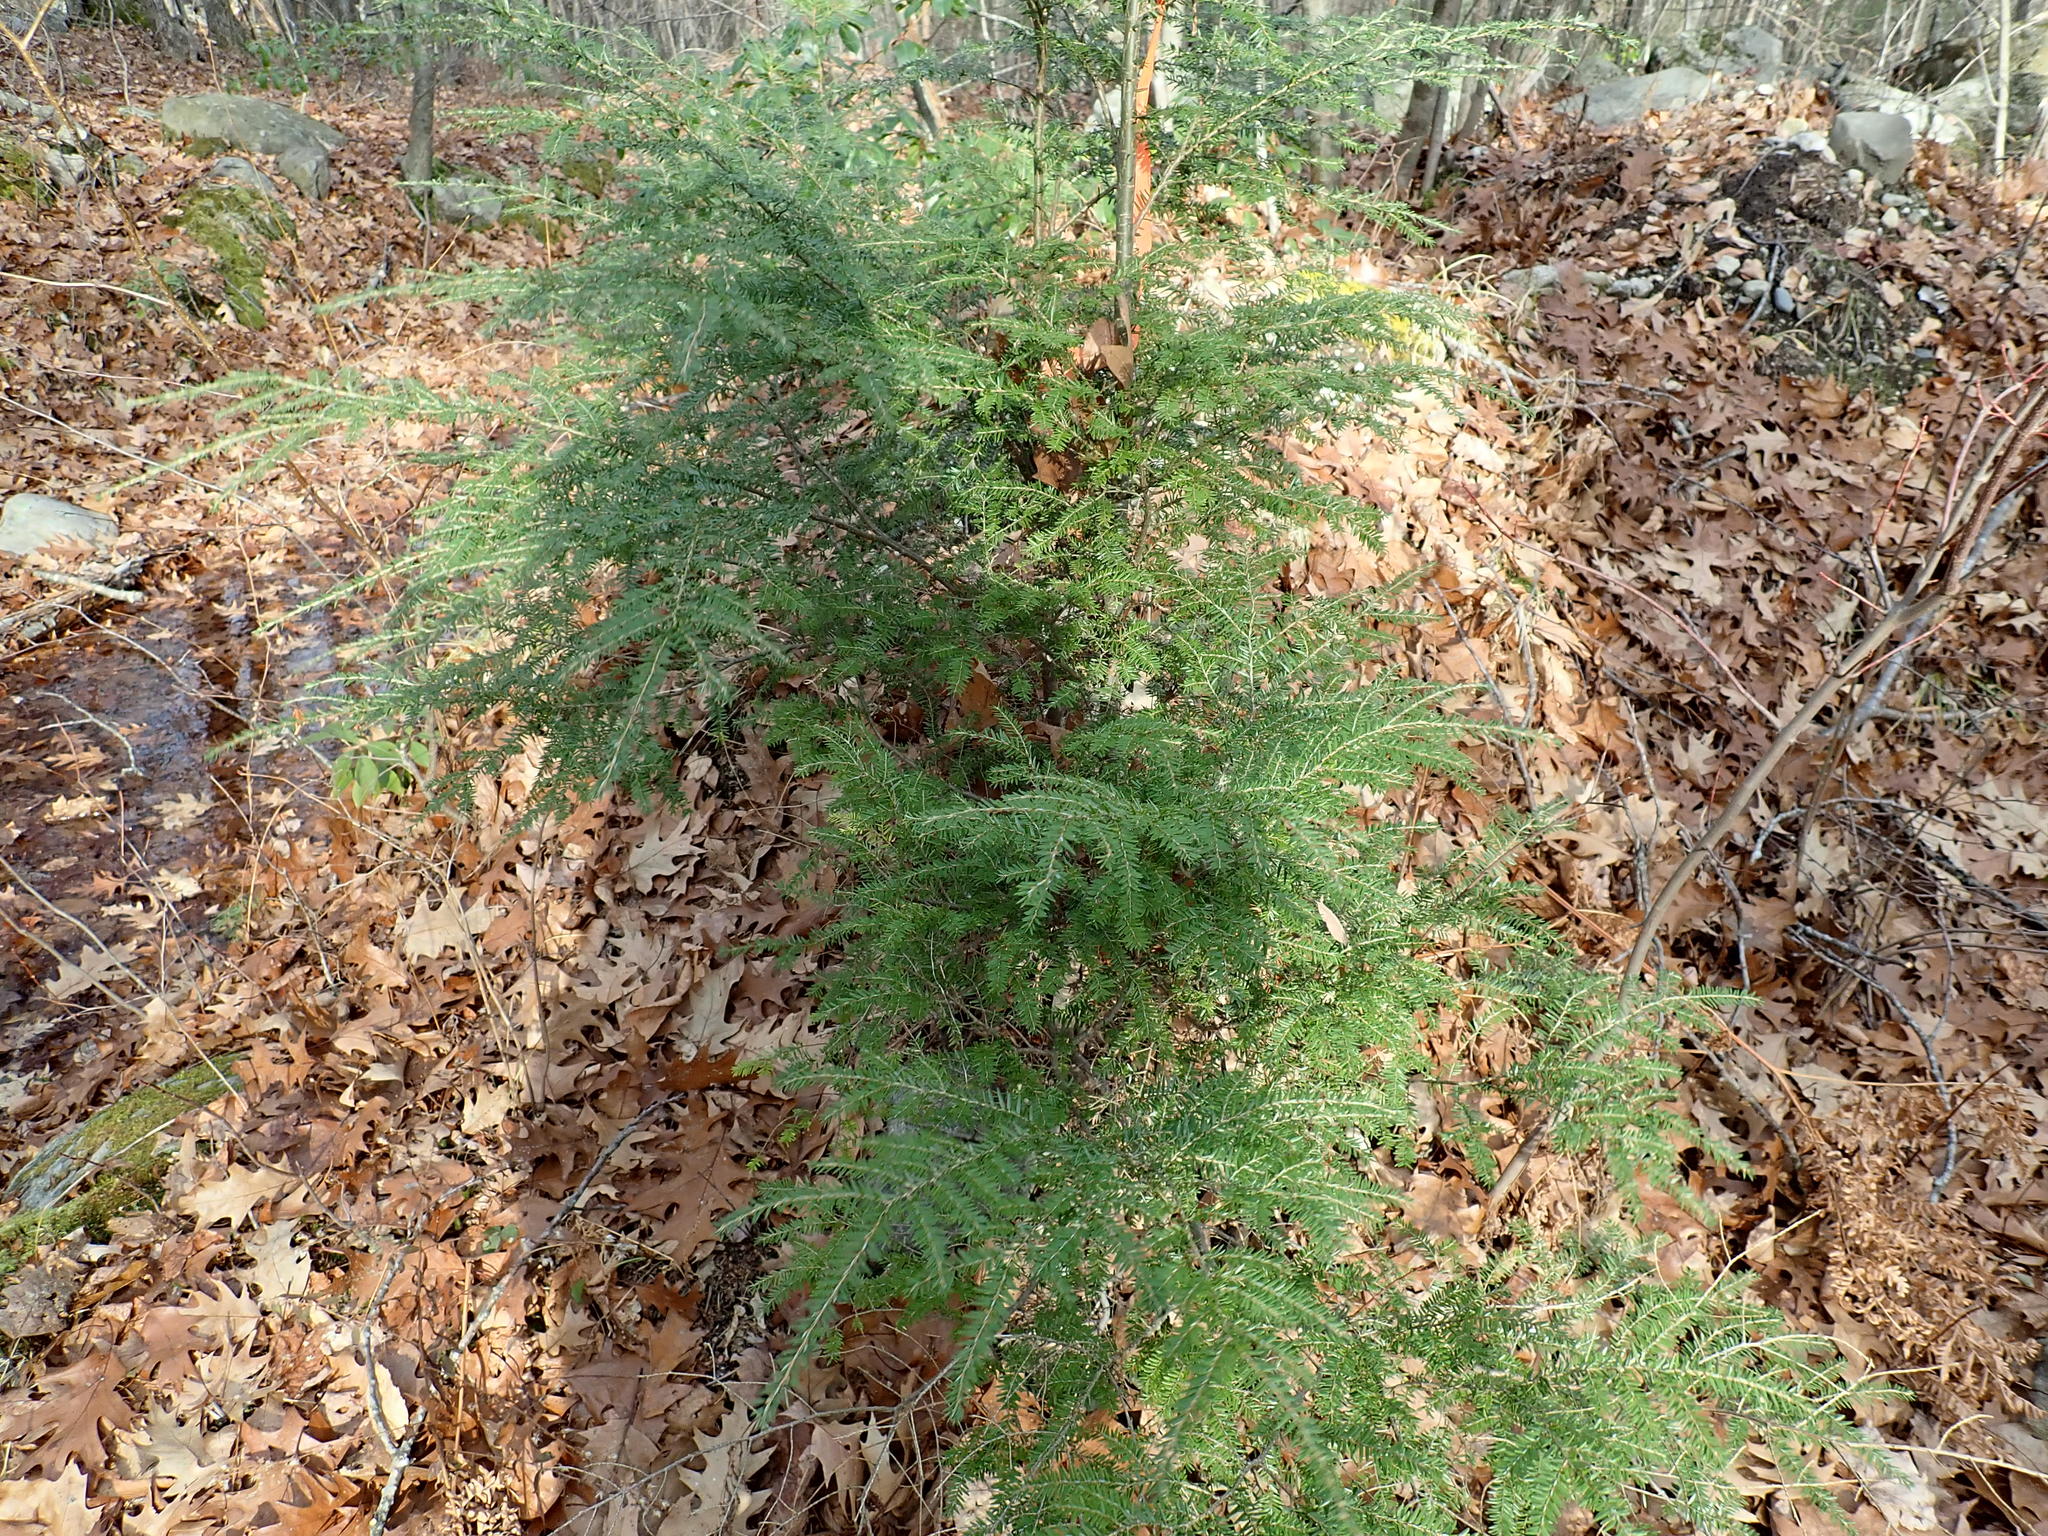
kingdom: Plantae
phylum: Tracheophyta
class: Pinopsida
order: Pinales
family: Pinaceae
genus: Tsuga
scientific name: Tsuga canadensis
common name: Eastern hemlock
